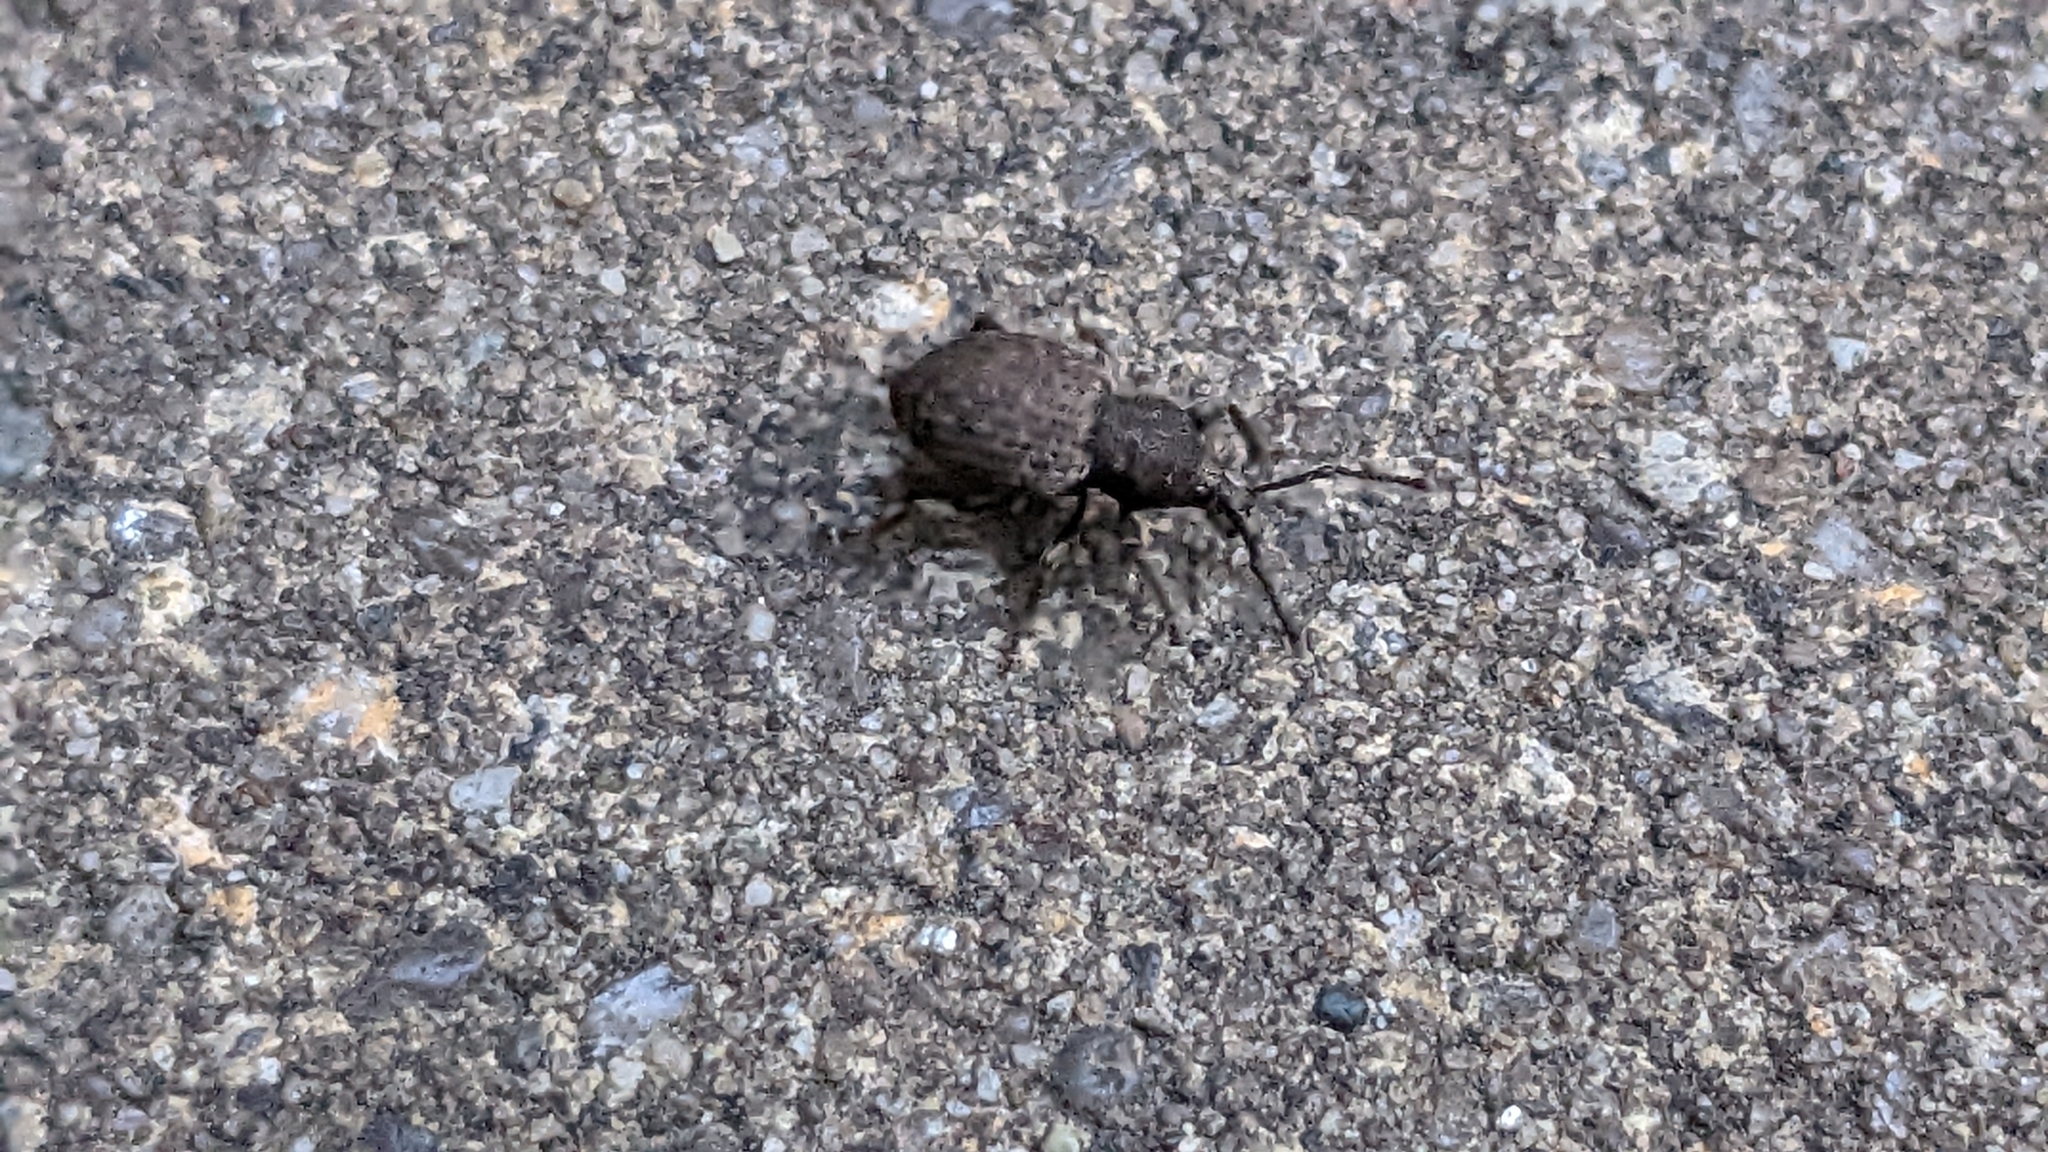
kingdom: Animalia
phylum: Arthropoda
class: Insecta
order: Coleoptera
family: Curculionidae
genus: Otiorhynchus
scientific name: Otiorhynchus raucus
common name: Weevil
